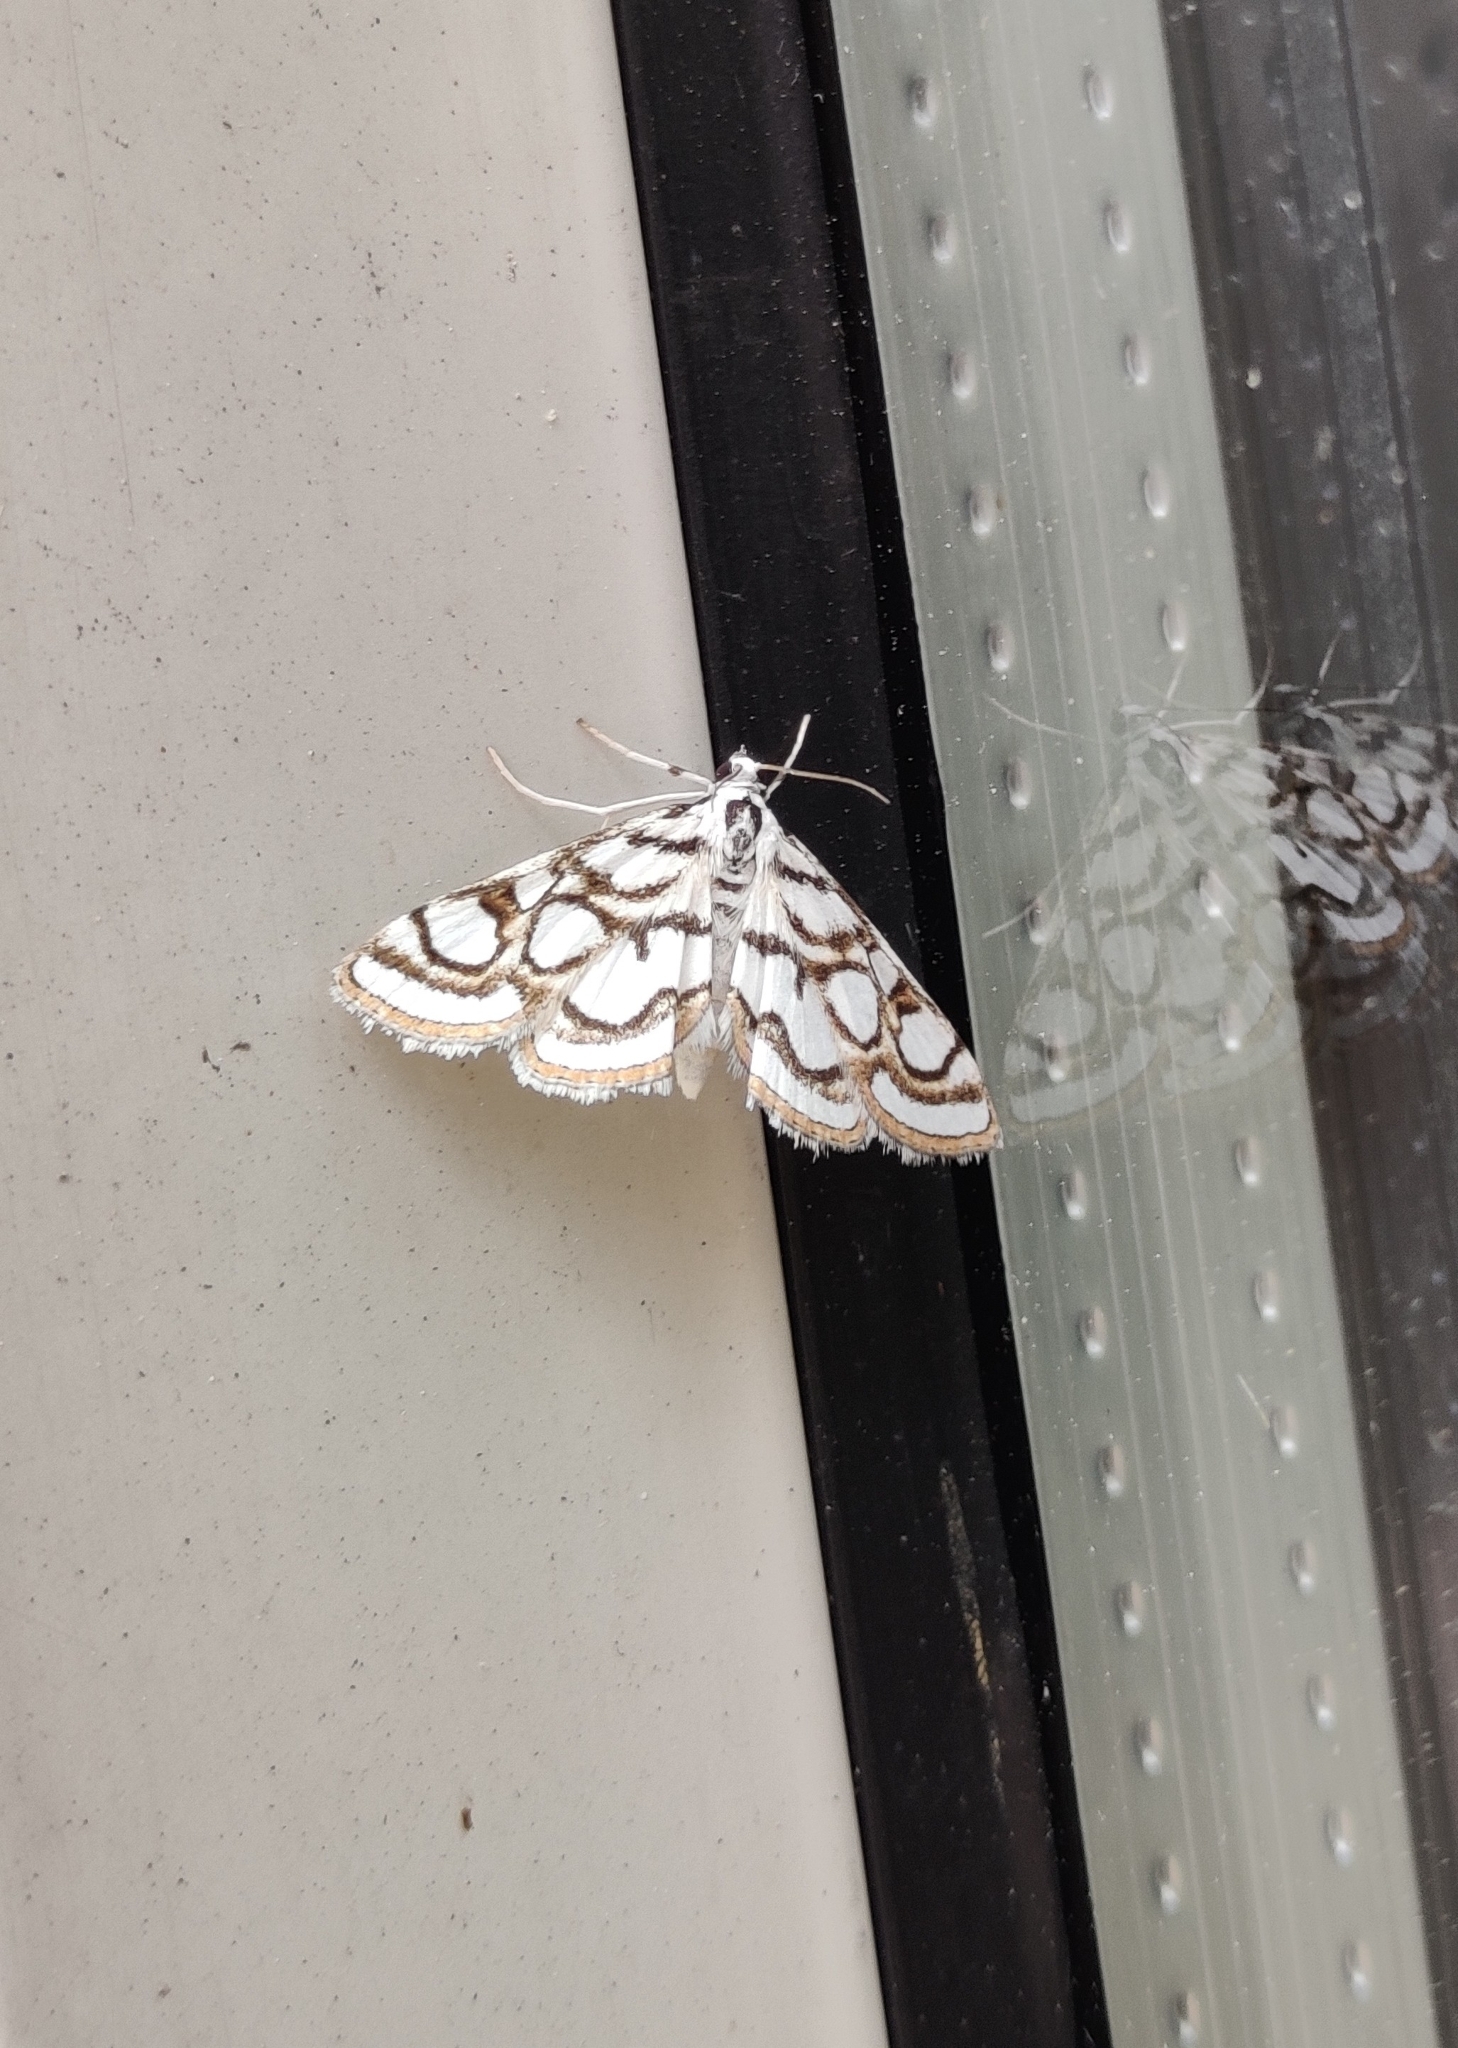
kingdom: Animalia
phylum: Arthropoda
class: Insecta
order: Lepidoptera
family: Crambidae
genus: Nymphula
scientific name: Nymphula nitidulata
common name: Beautiful china mark
